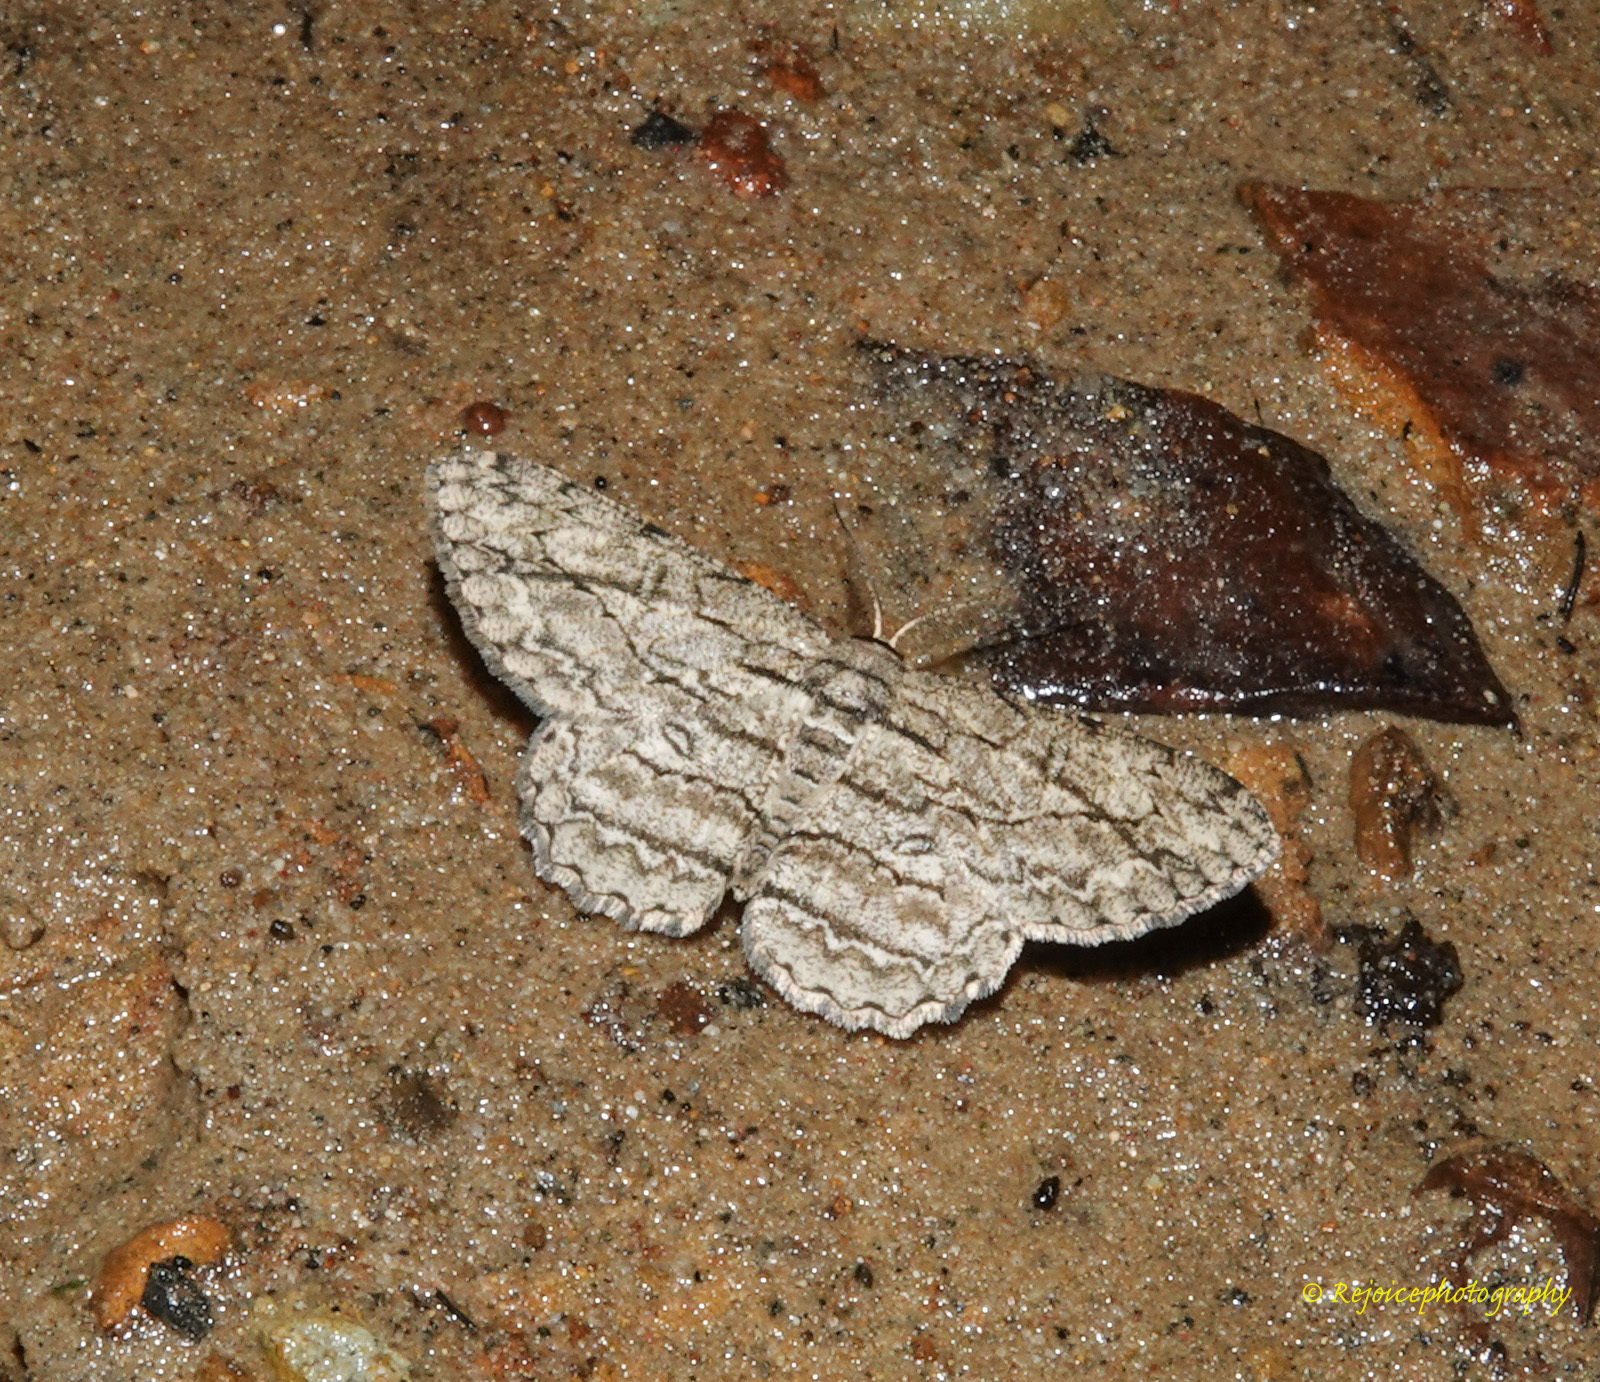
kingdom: Animalia
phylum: Arthropoda
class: Insecta
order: Lepidoptera
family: Geometridae
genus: Hypomecis
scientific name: Hypomecis transcissa
